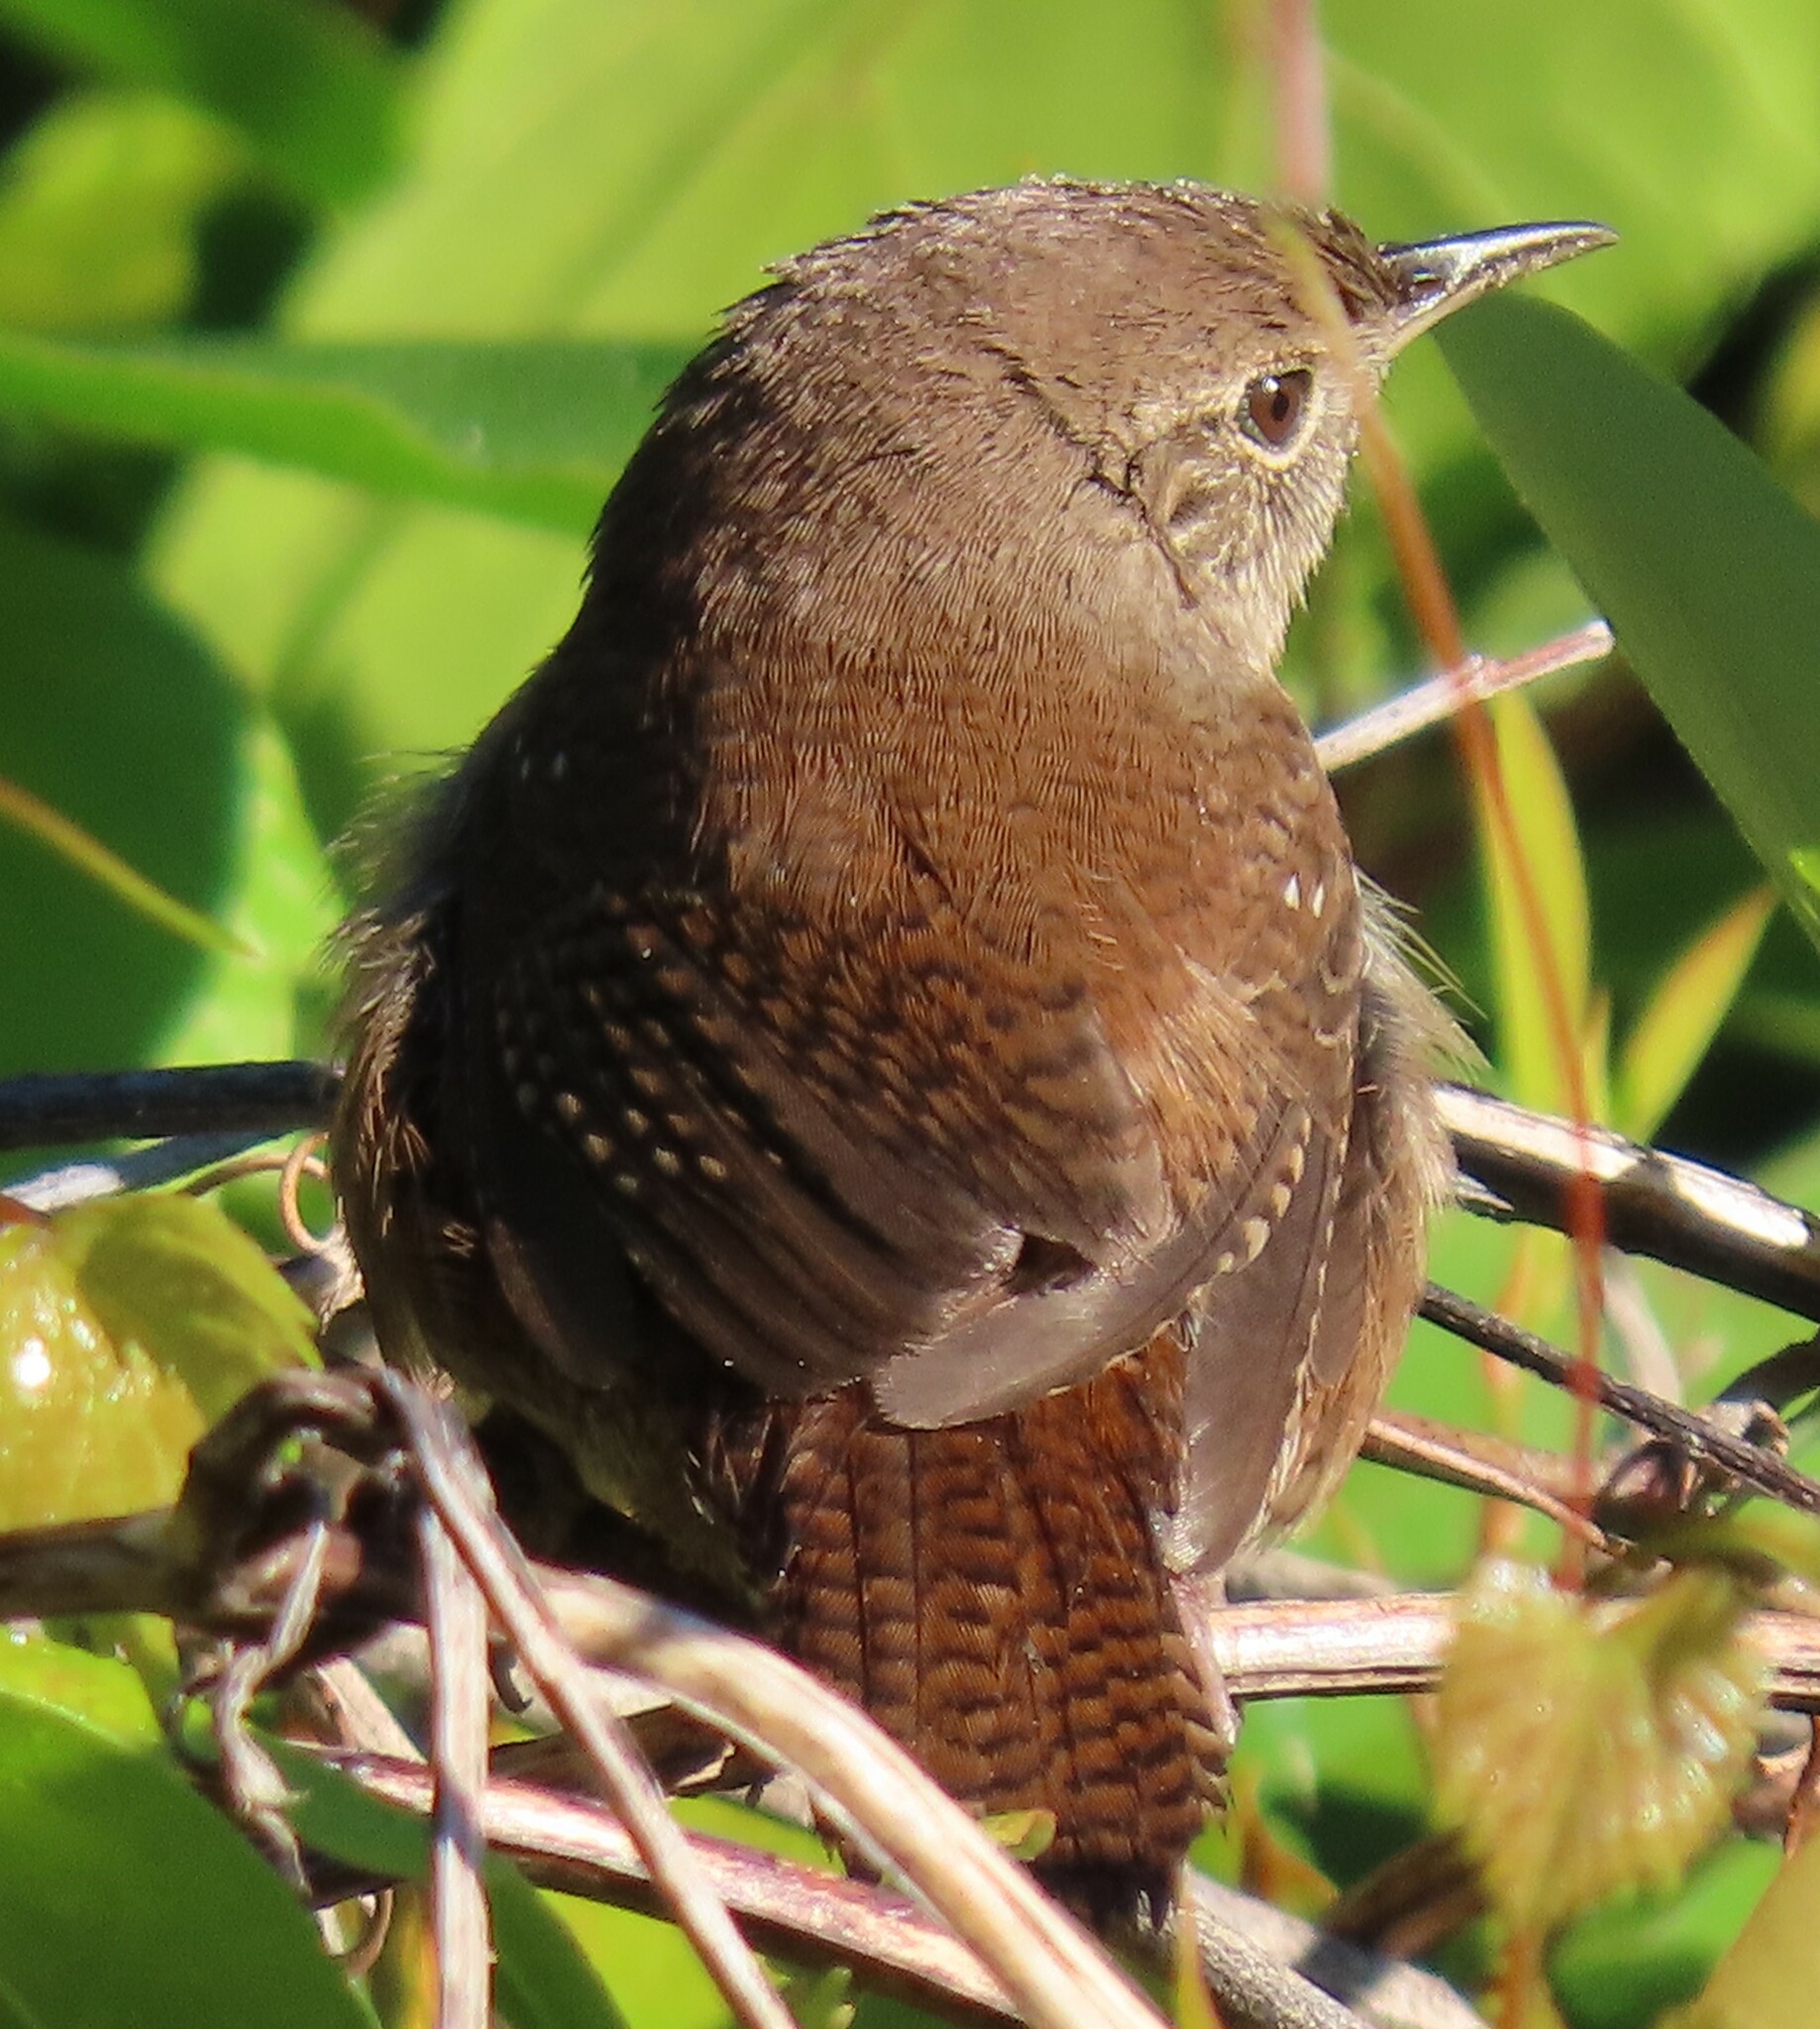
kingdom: Animalia
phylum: Chordata
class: Aves
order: Passeriformes
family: Troglodytidae
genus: Troglodytes
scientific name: Troglodytes aedon
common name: House wren
